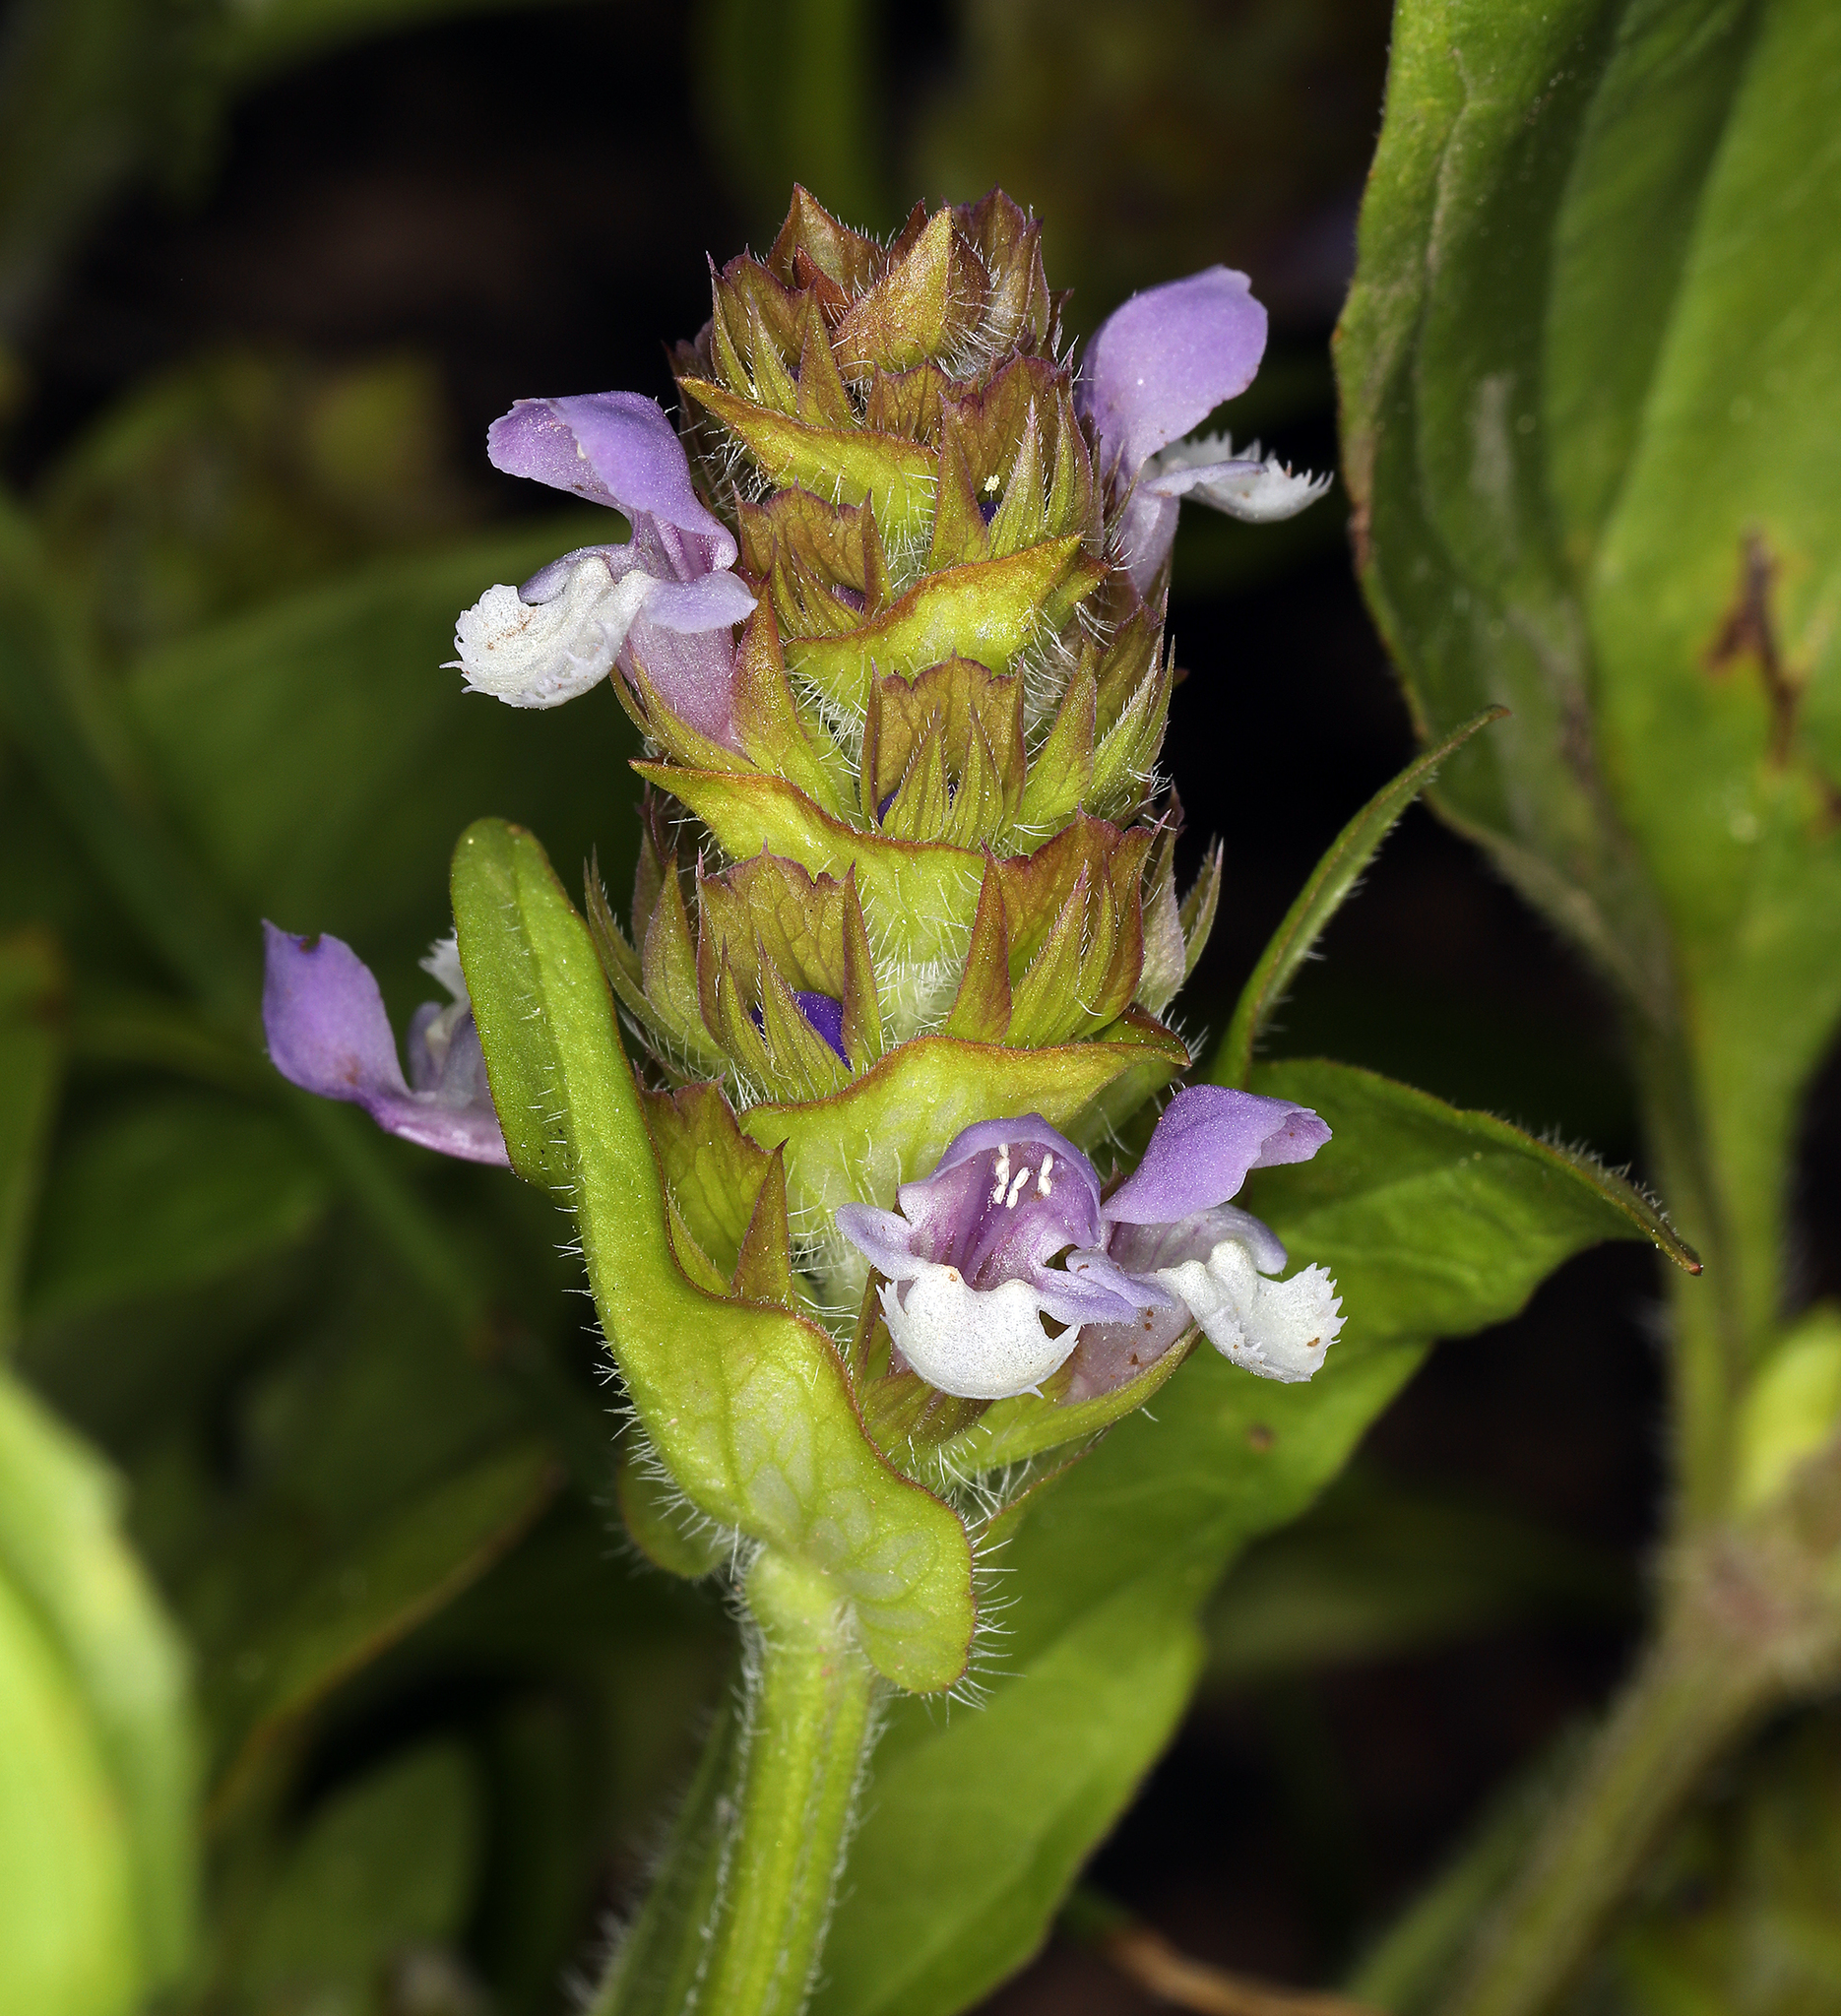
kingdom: Plantae
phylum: Tracheophyta
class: Magnoliopsida
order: Lamiales
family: Lamiaceae
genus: Prunella
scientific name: Prunella vulgaris
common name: Heal-all
